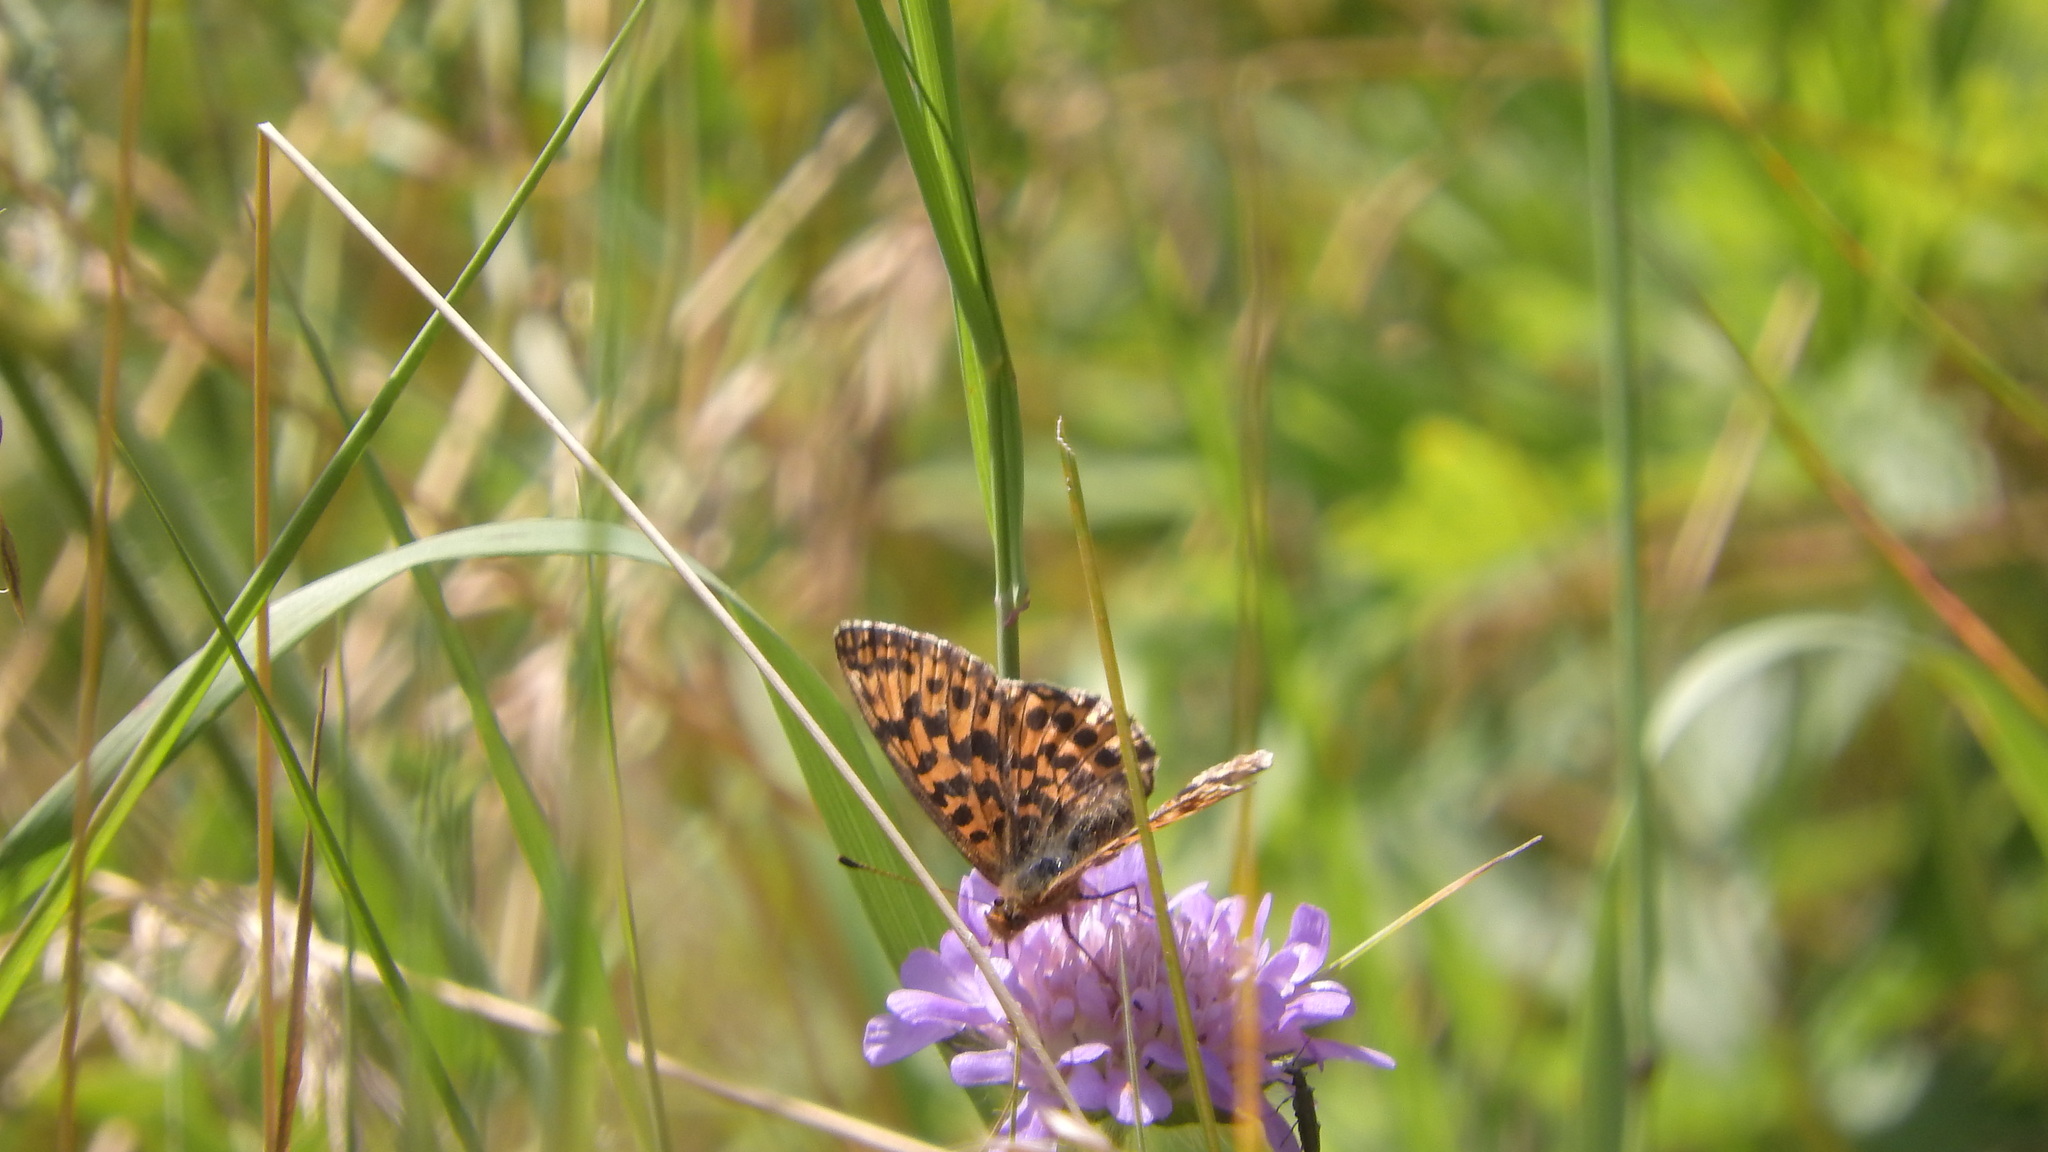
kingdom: Animalia
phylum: Arthropoda
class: Insecta
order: Lepidoptera
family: Nymphalidae
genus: Boloria
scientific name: Boloria dia
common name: Weaver's fritillary
